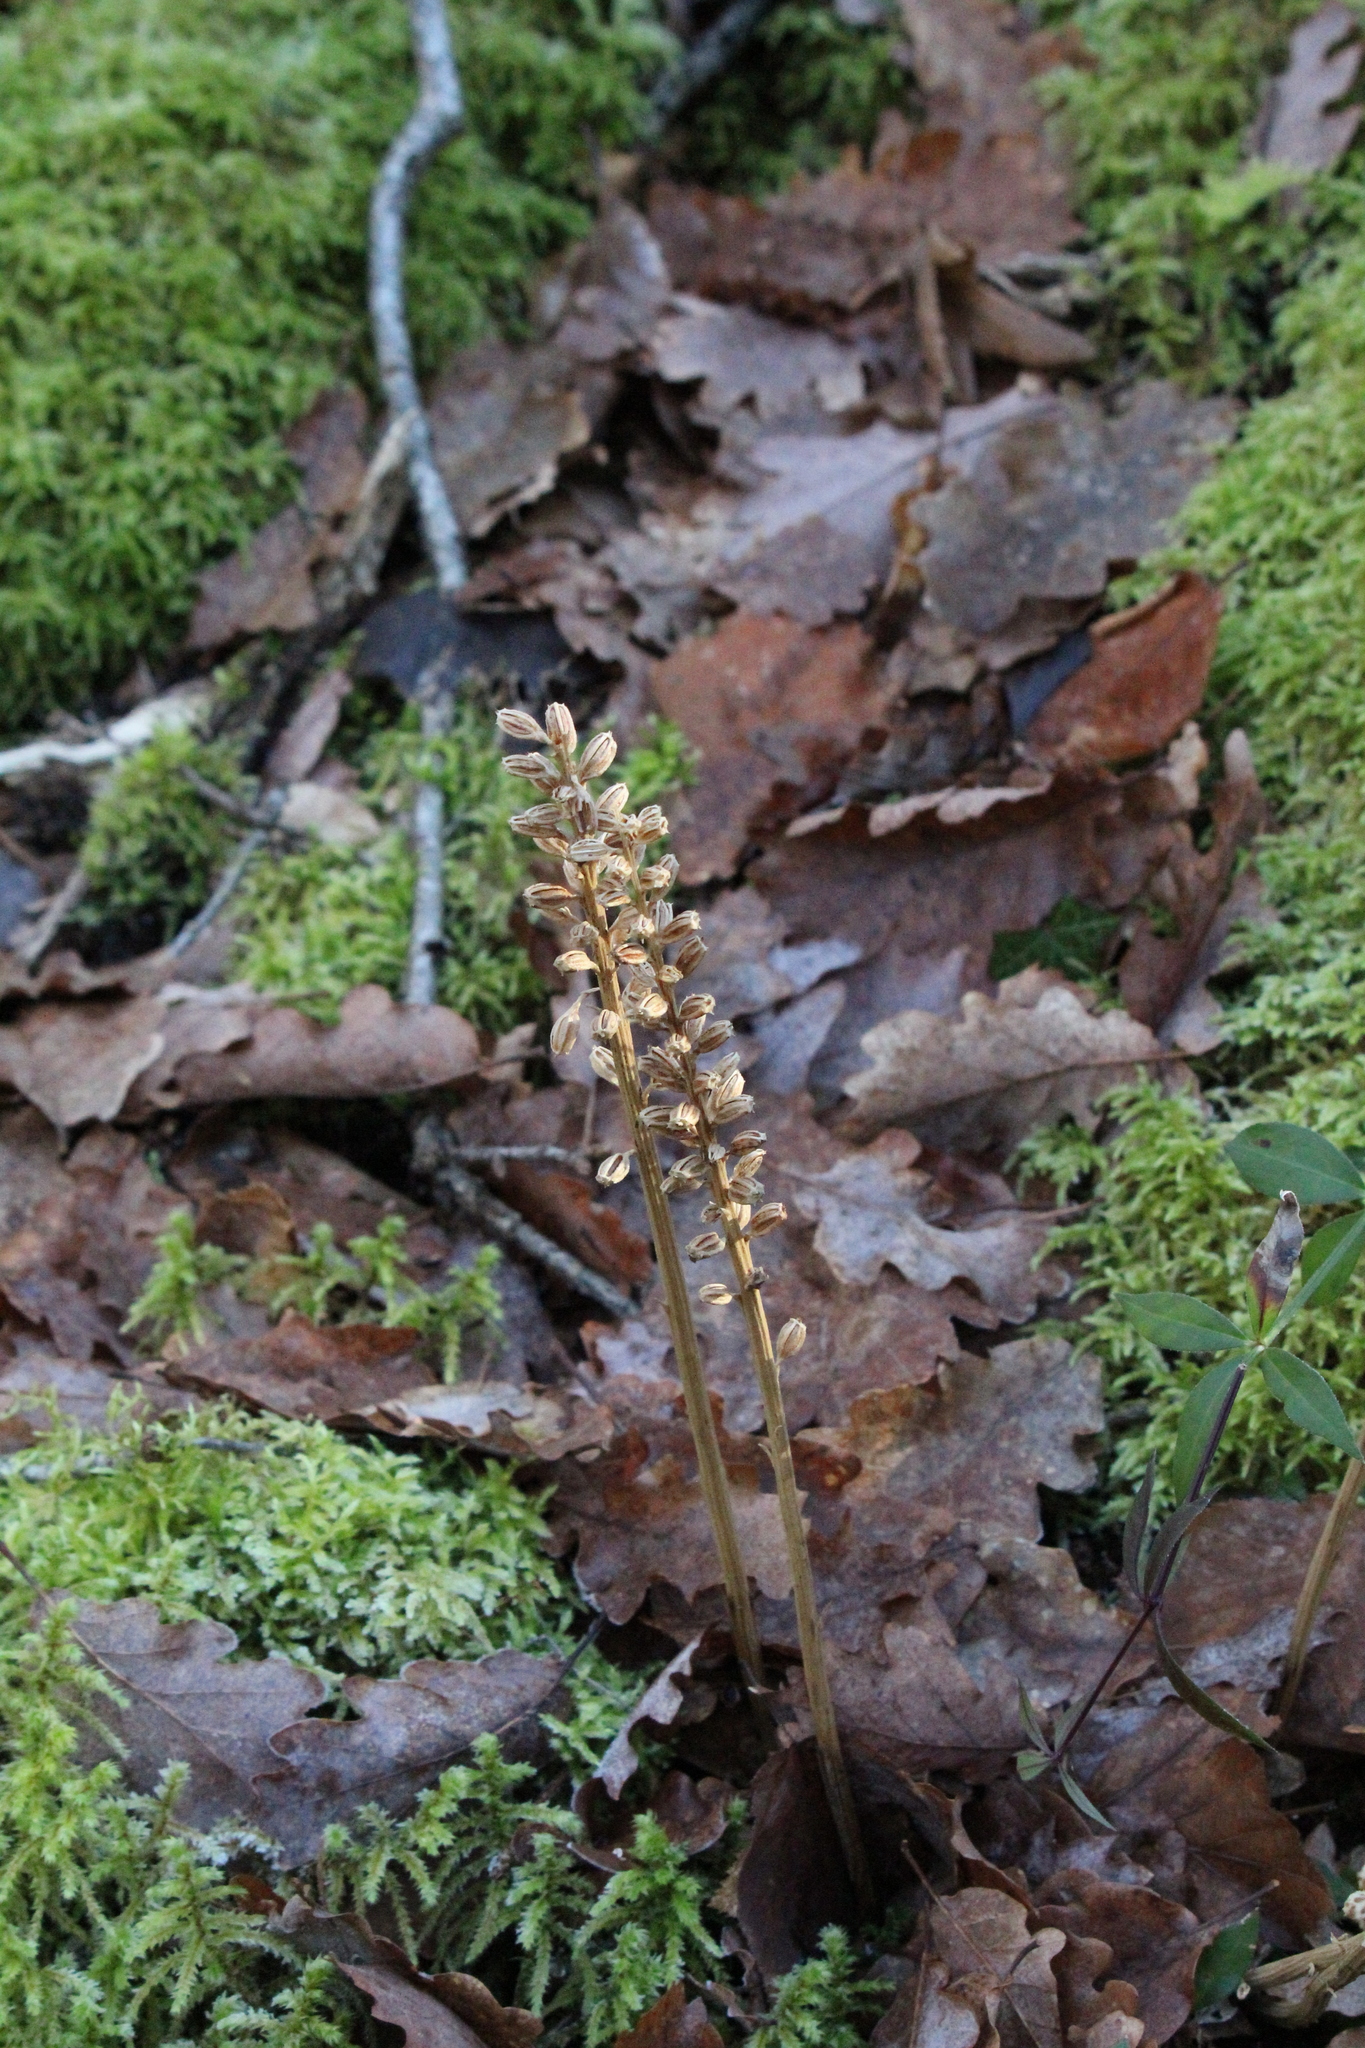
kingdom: Plantae
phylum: Tracheophyta
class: Liliopsida
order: Asparagales
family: Orchidaceae
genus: Neottia
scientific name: Neottia nidus-avis
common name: Bird's-nest orchid
